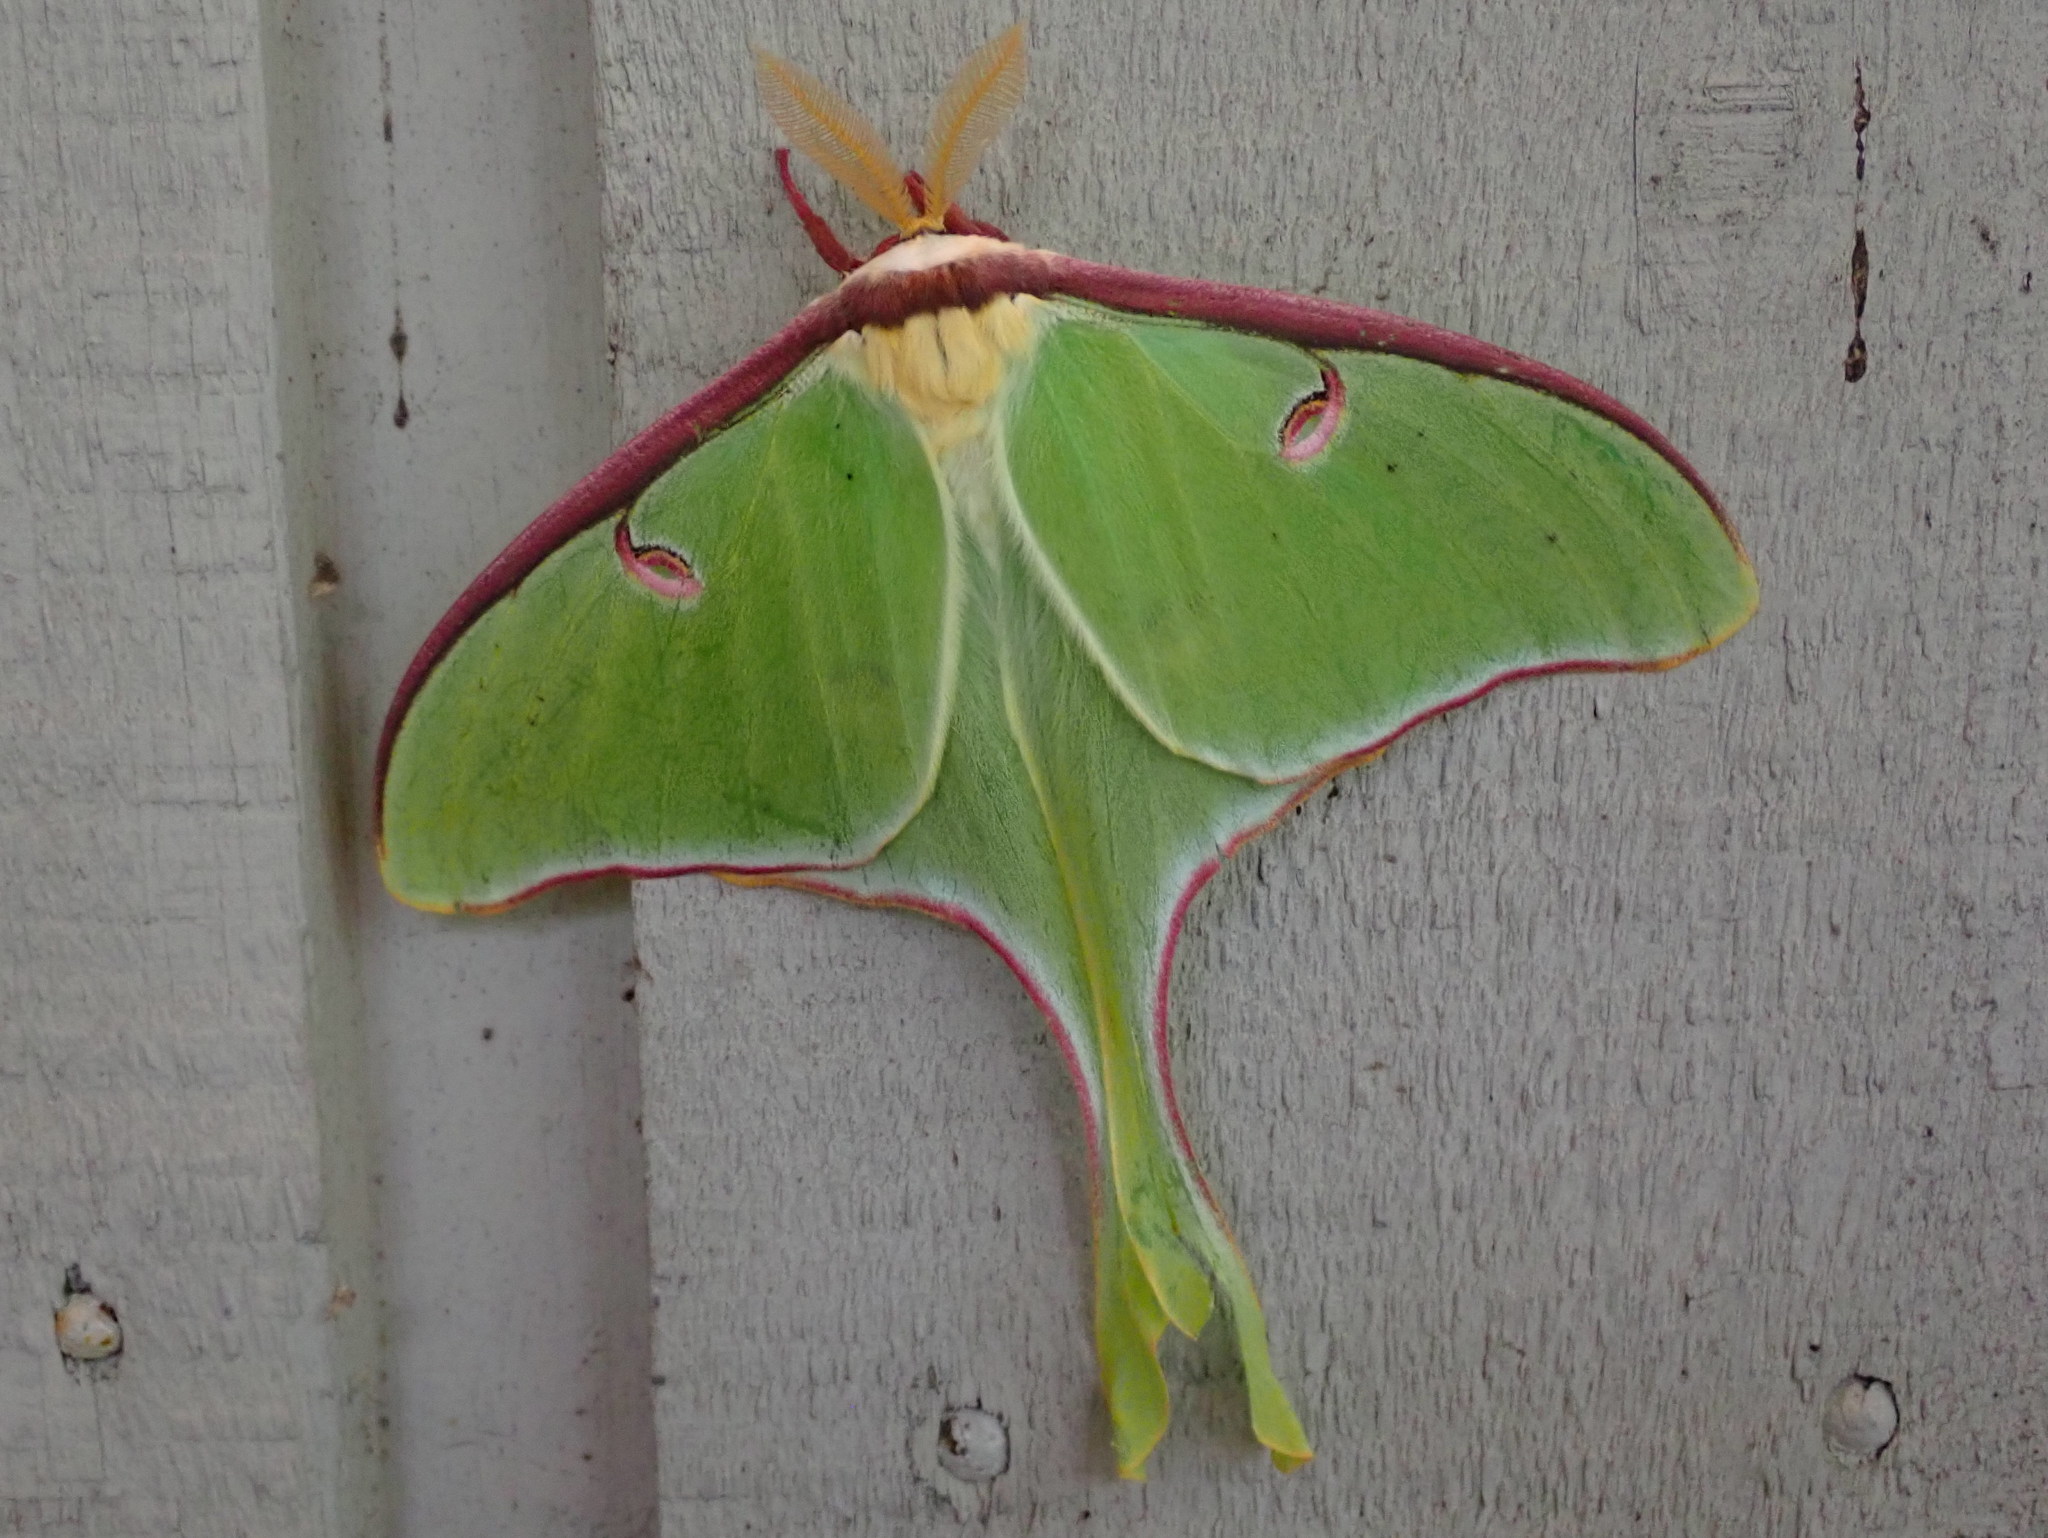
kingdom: Animalia
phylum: Arthropoda
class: Insecta
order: Lepidoptera
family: Saturniidae
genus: Actias
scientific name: Actias luna
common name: Luna moth
